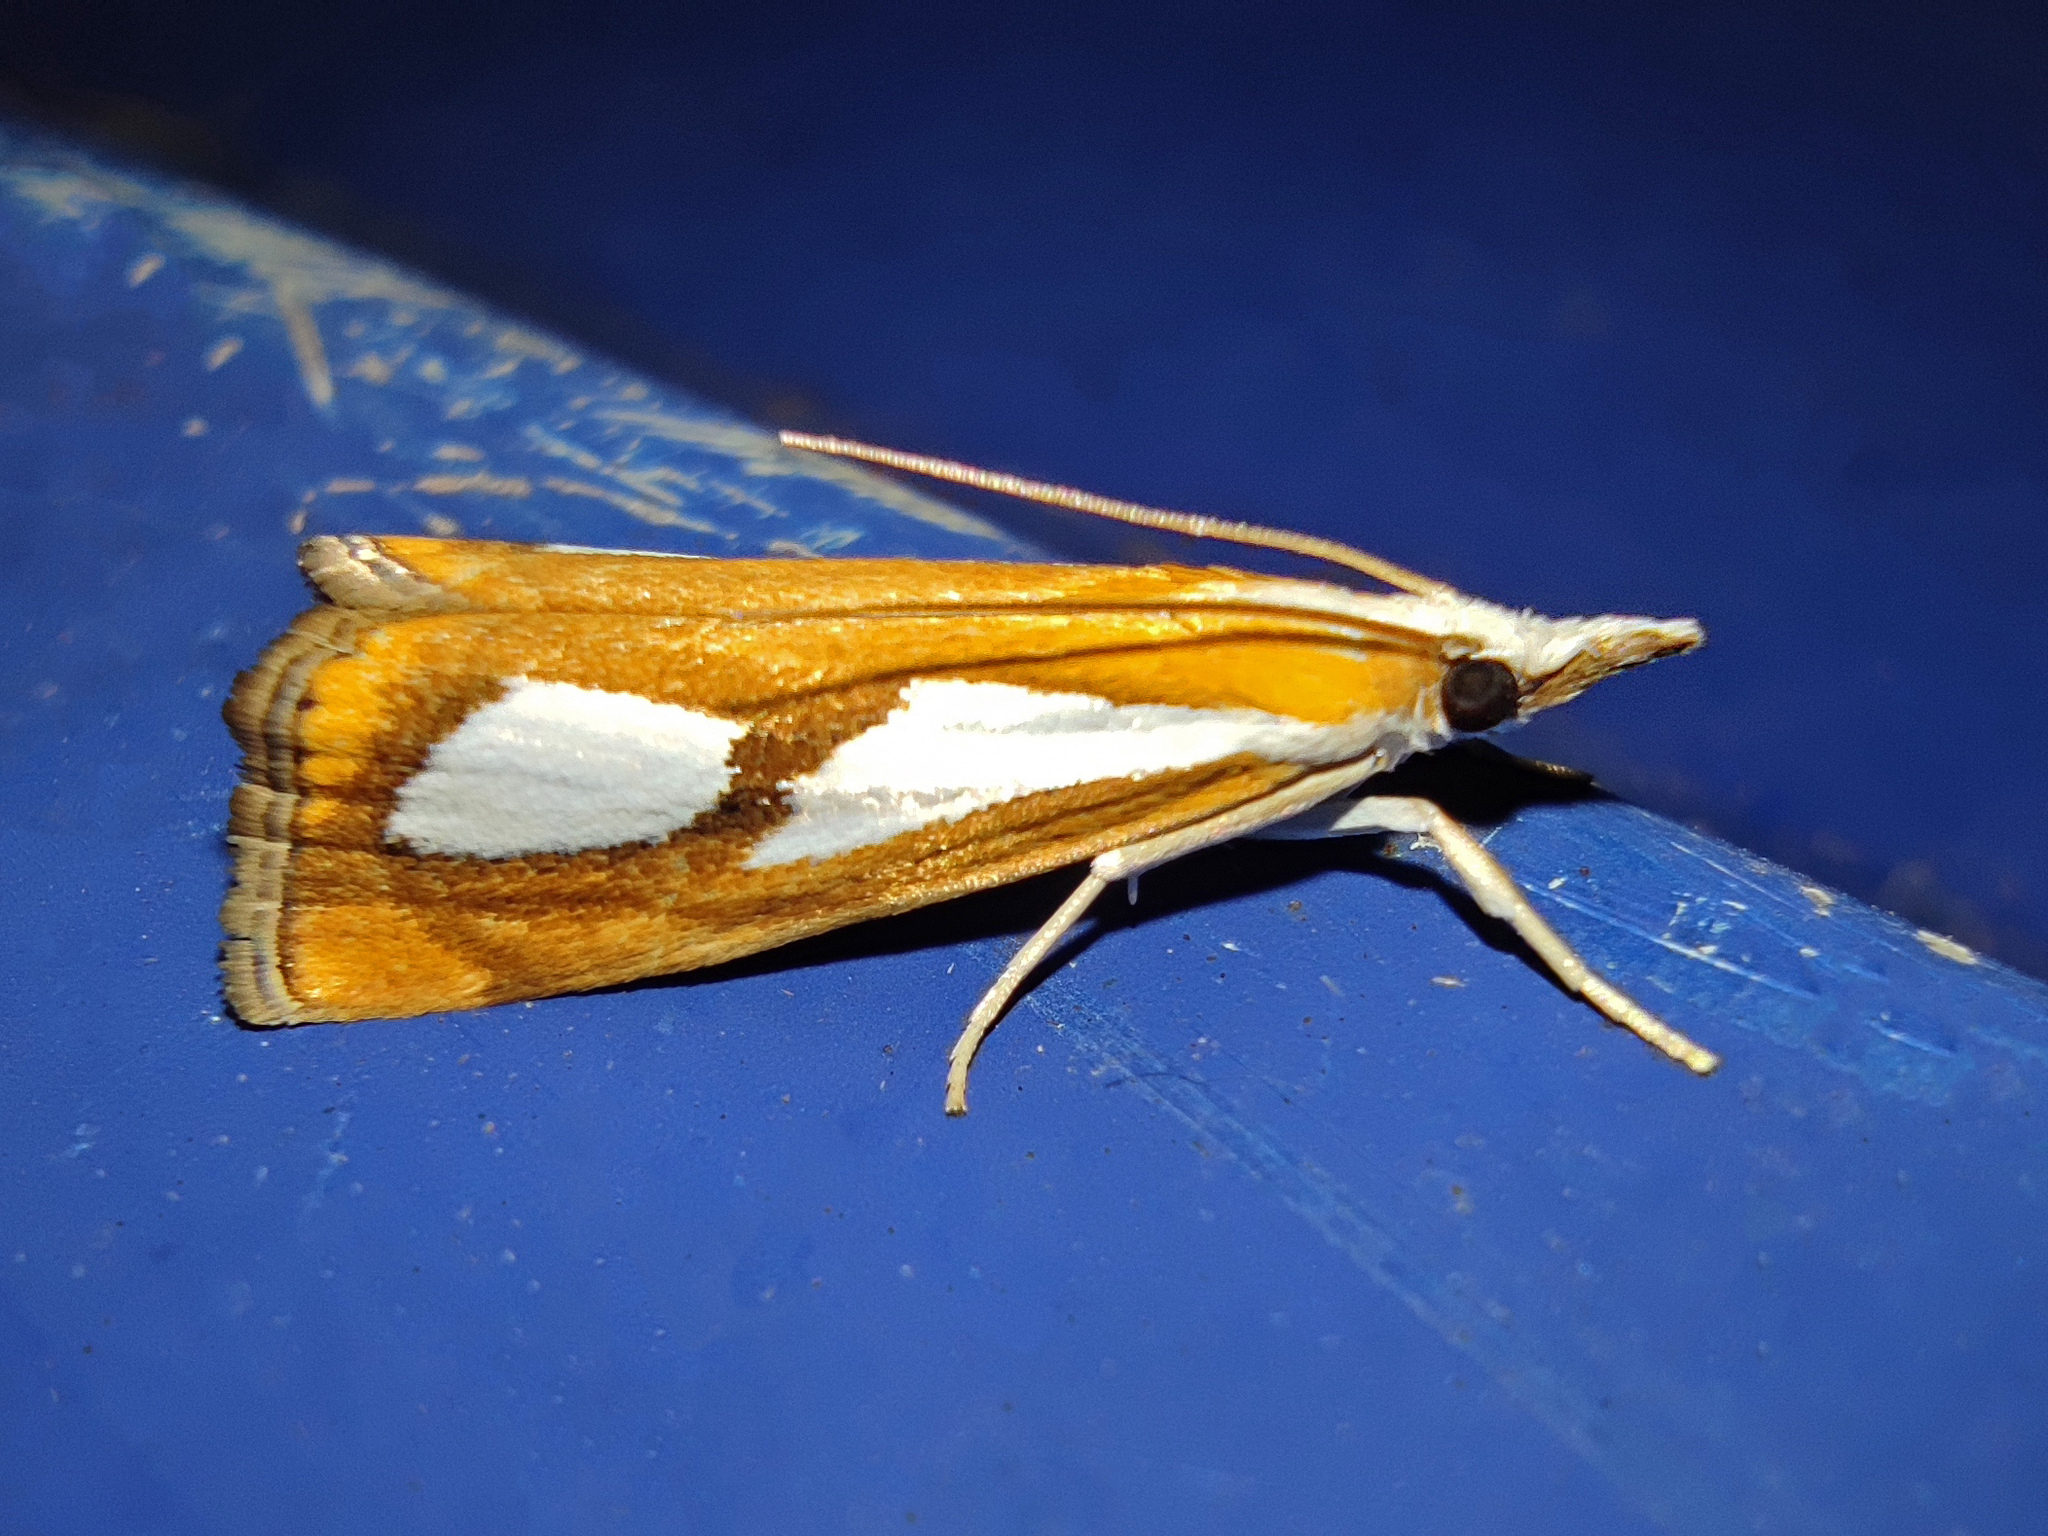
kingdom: Animalia
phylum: Arthropoda
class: Insecta
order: Lepidoptera
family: Crambidae
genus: Catoptria
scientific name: Catoptria pinella
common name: Pearl grass-veneer
